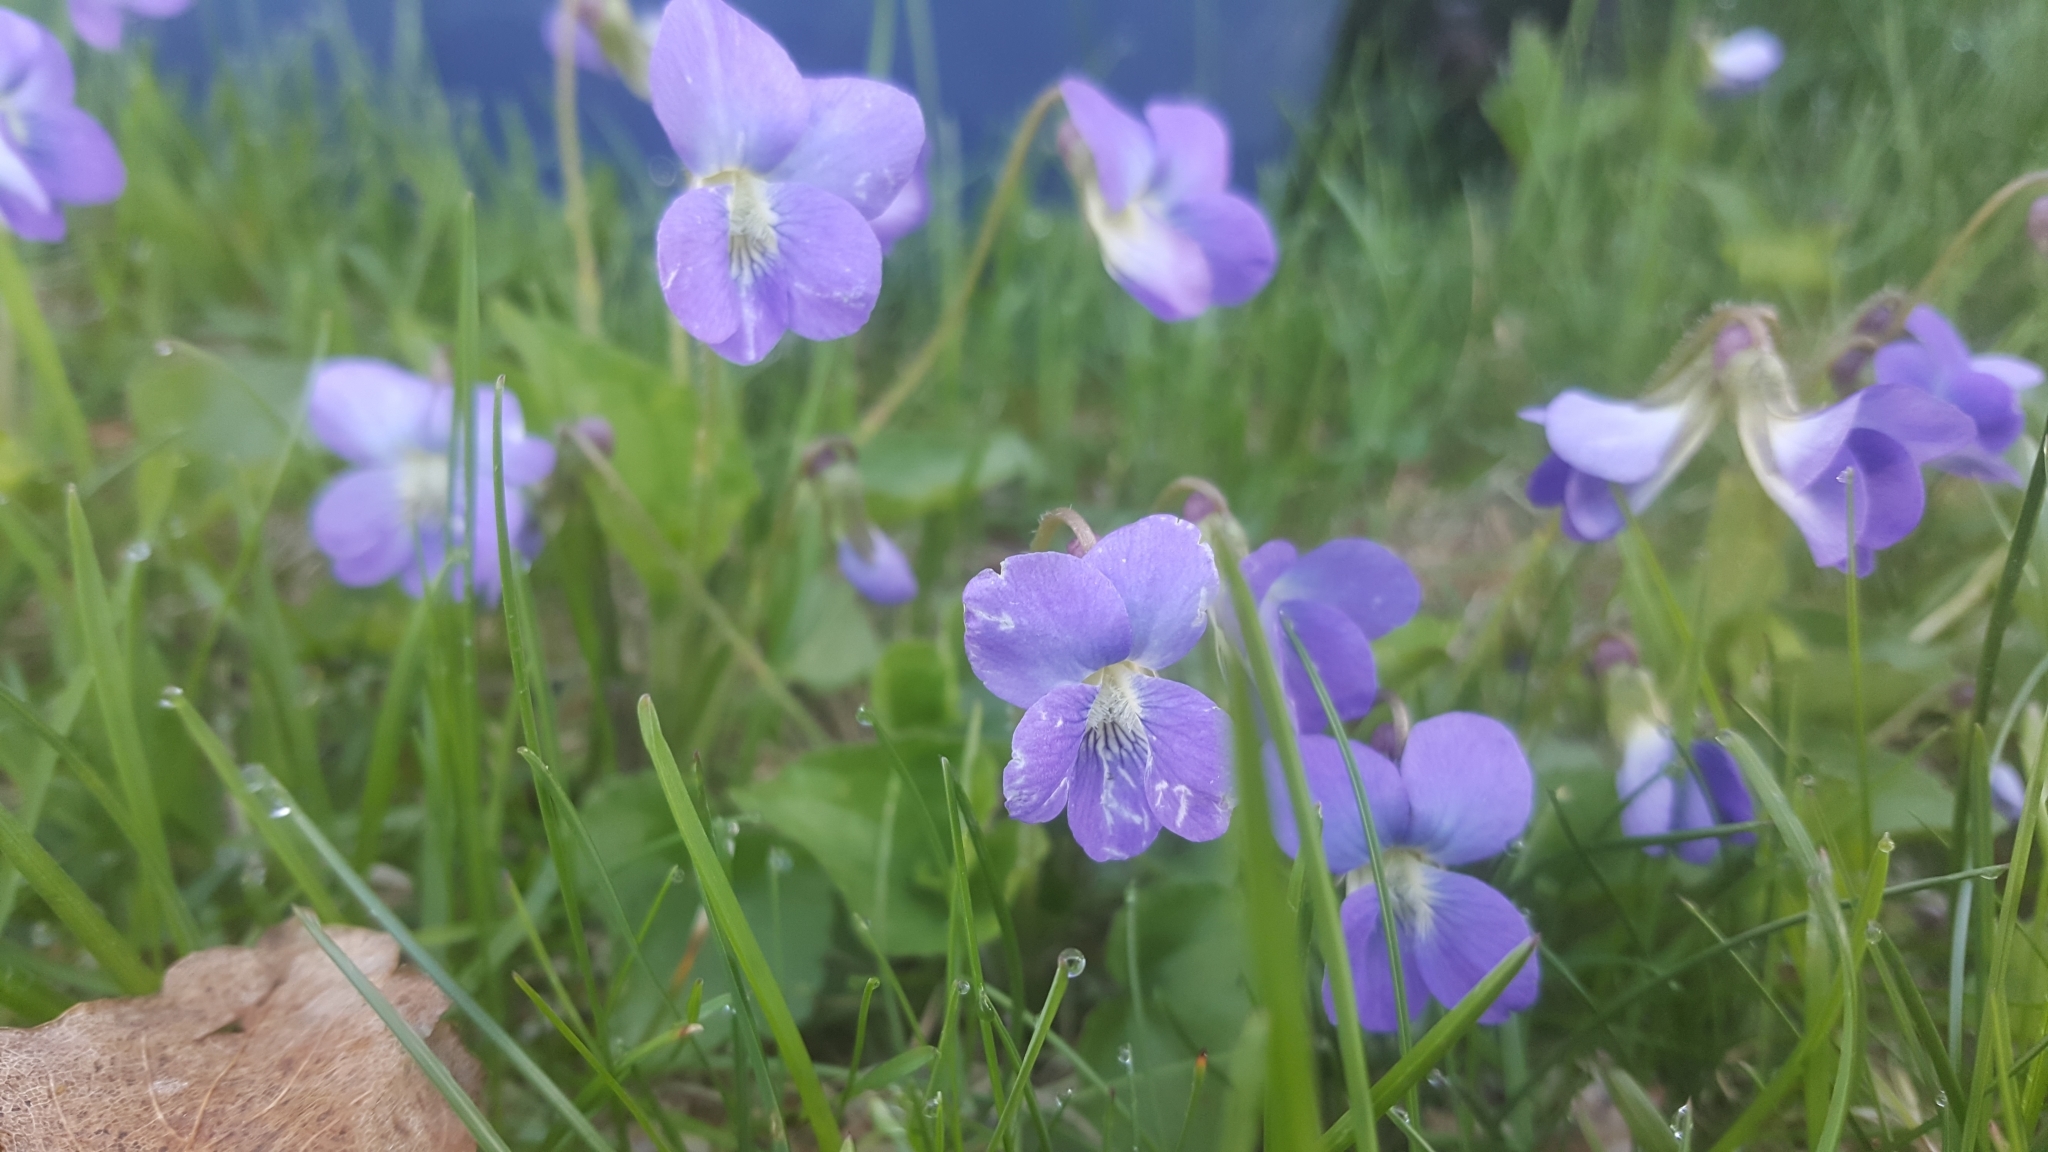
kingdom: Plantae
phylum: Tracheophyta
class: Magnoliopsida
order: Malpighiales
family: Violaceae
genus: Viola
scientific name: Viola sororia
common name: Dooryard violet
